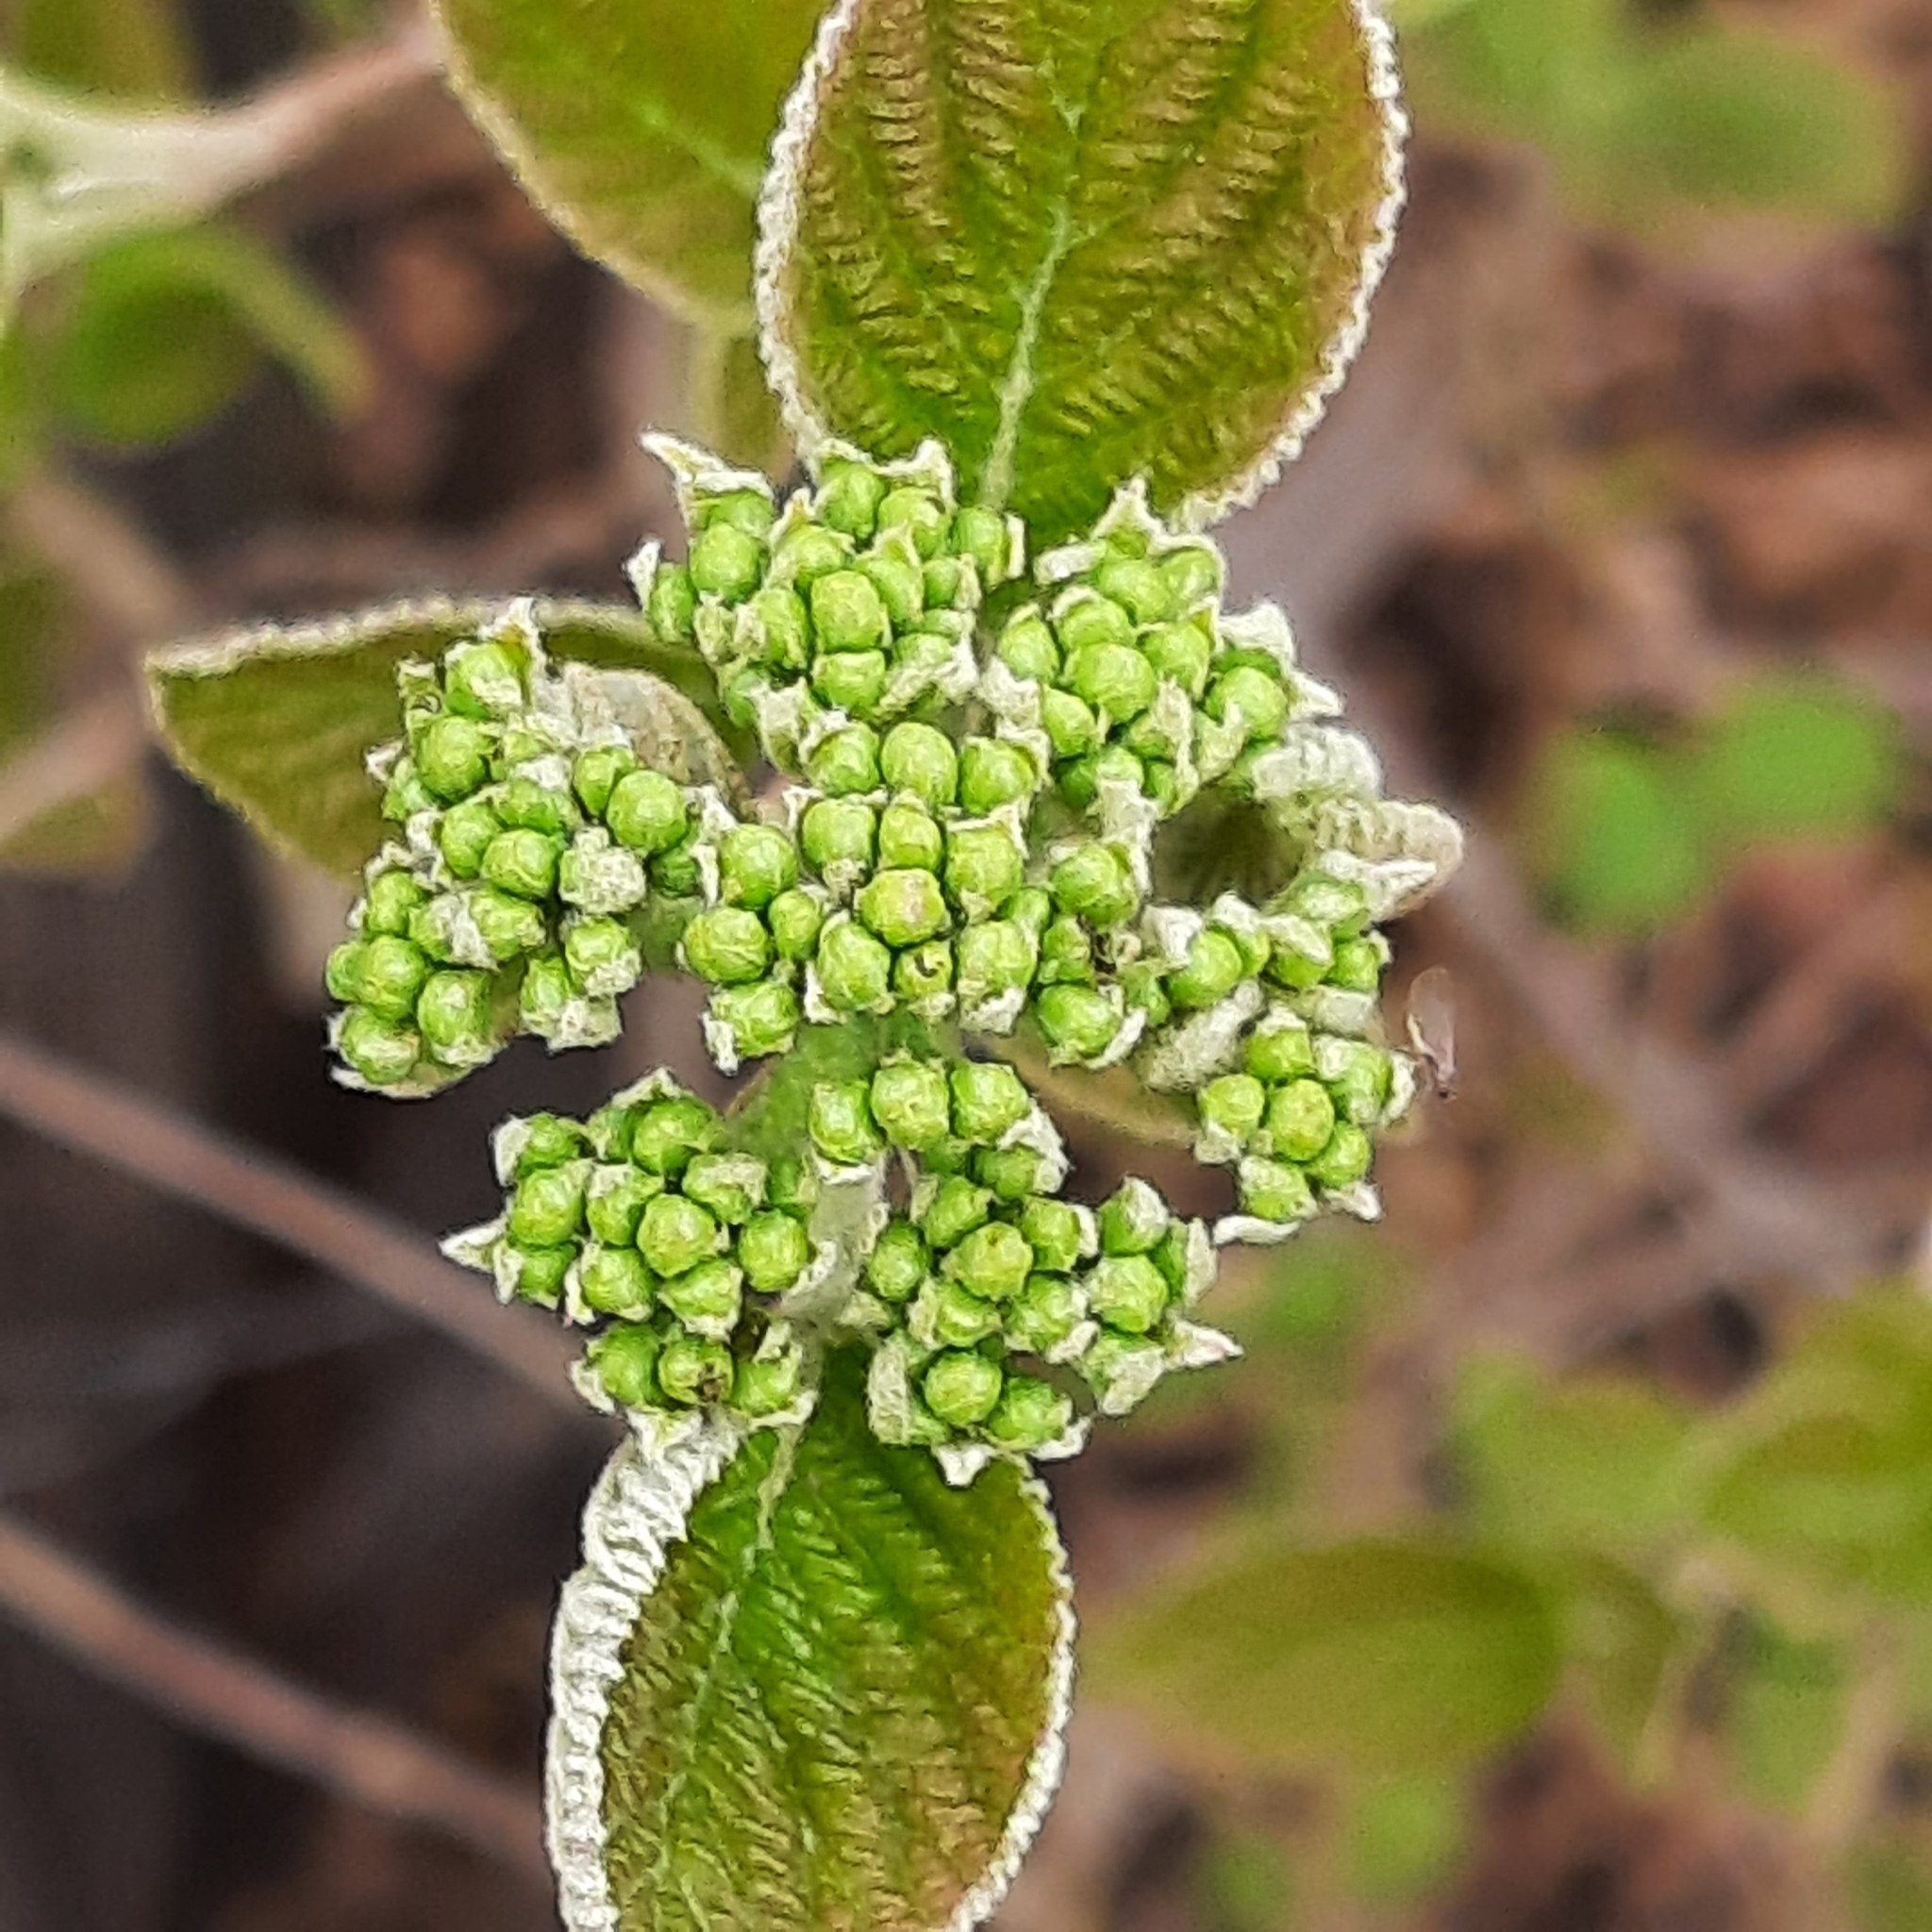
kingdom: Plantae
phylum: Tracheophyta
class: Magnoliopsida
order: Dipsacales
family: Viburnaceae
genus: Viburnum
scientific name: Viburnum lantana
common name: Wayfaring tree
